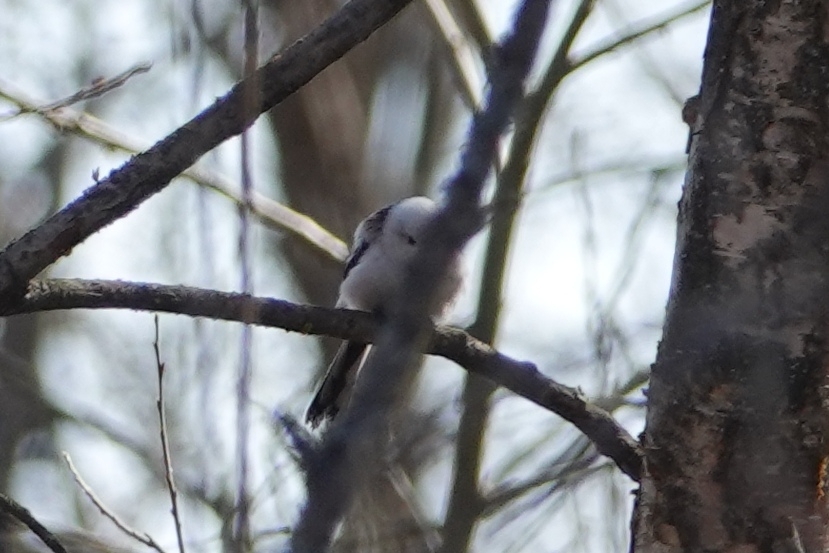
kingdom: Animalia
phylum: Chordata
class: Aves
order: Passeriformes
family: Aegithalidae
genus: Aegithalos
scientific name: Aegithalos caudatus
